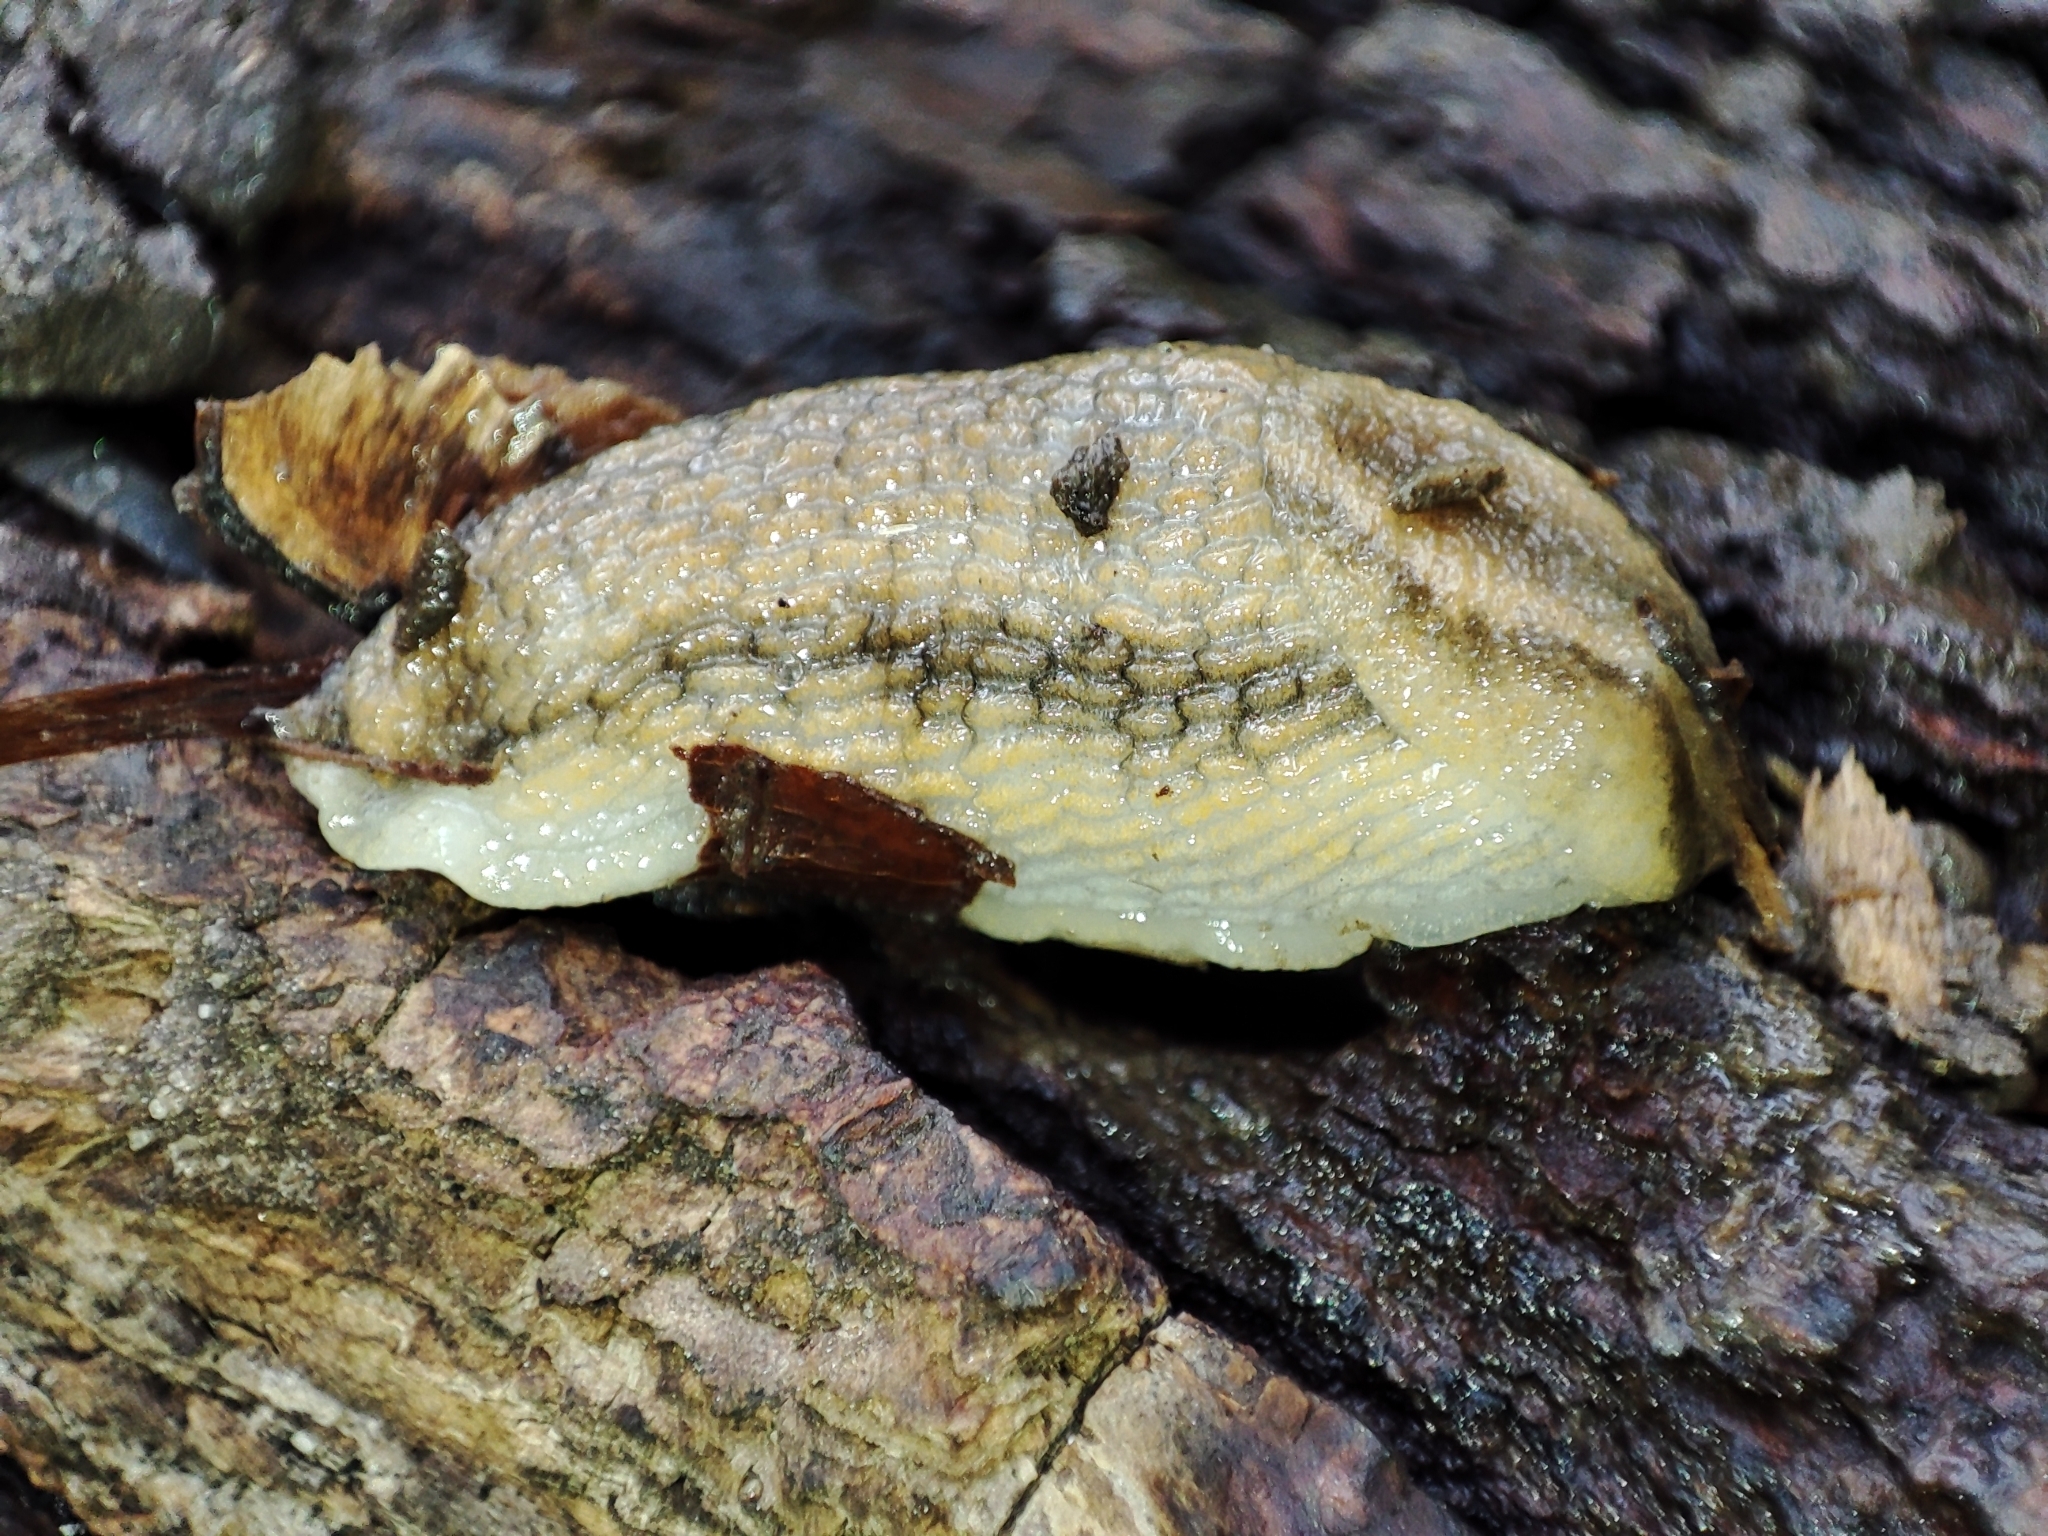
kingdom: Animalia
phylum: Mollusca
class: Gastropoda
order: Stylommatophora
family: Arionidae
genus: Arion
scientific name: Arion fasciatus
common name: Orange-banded arion
